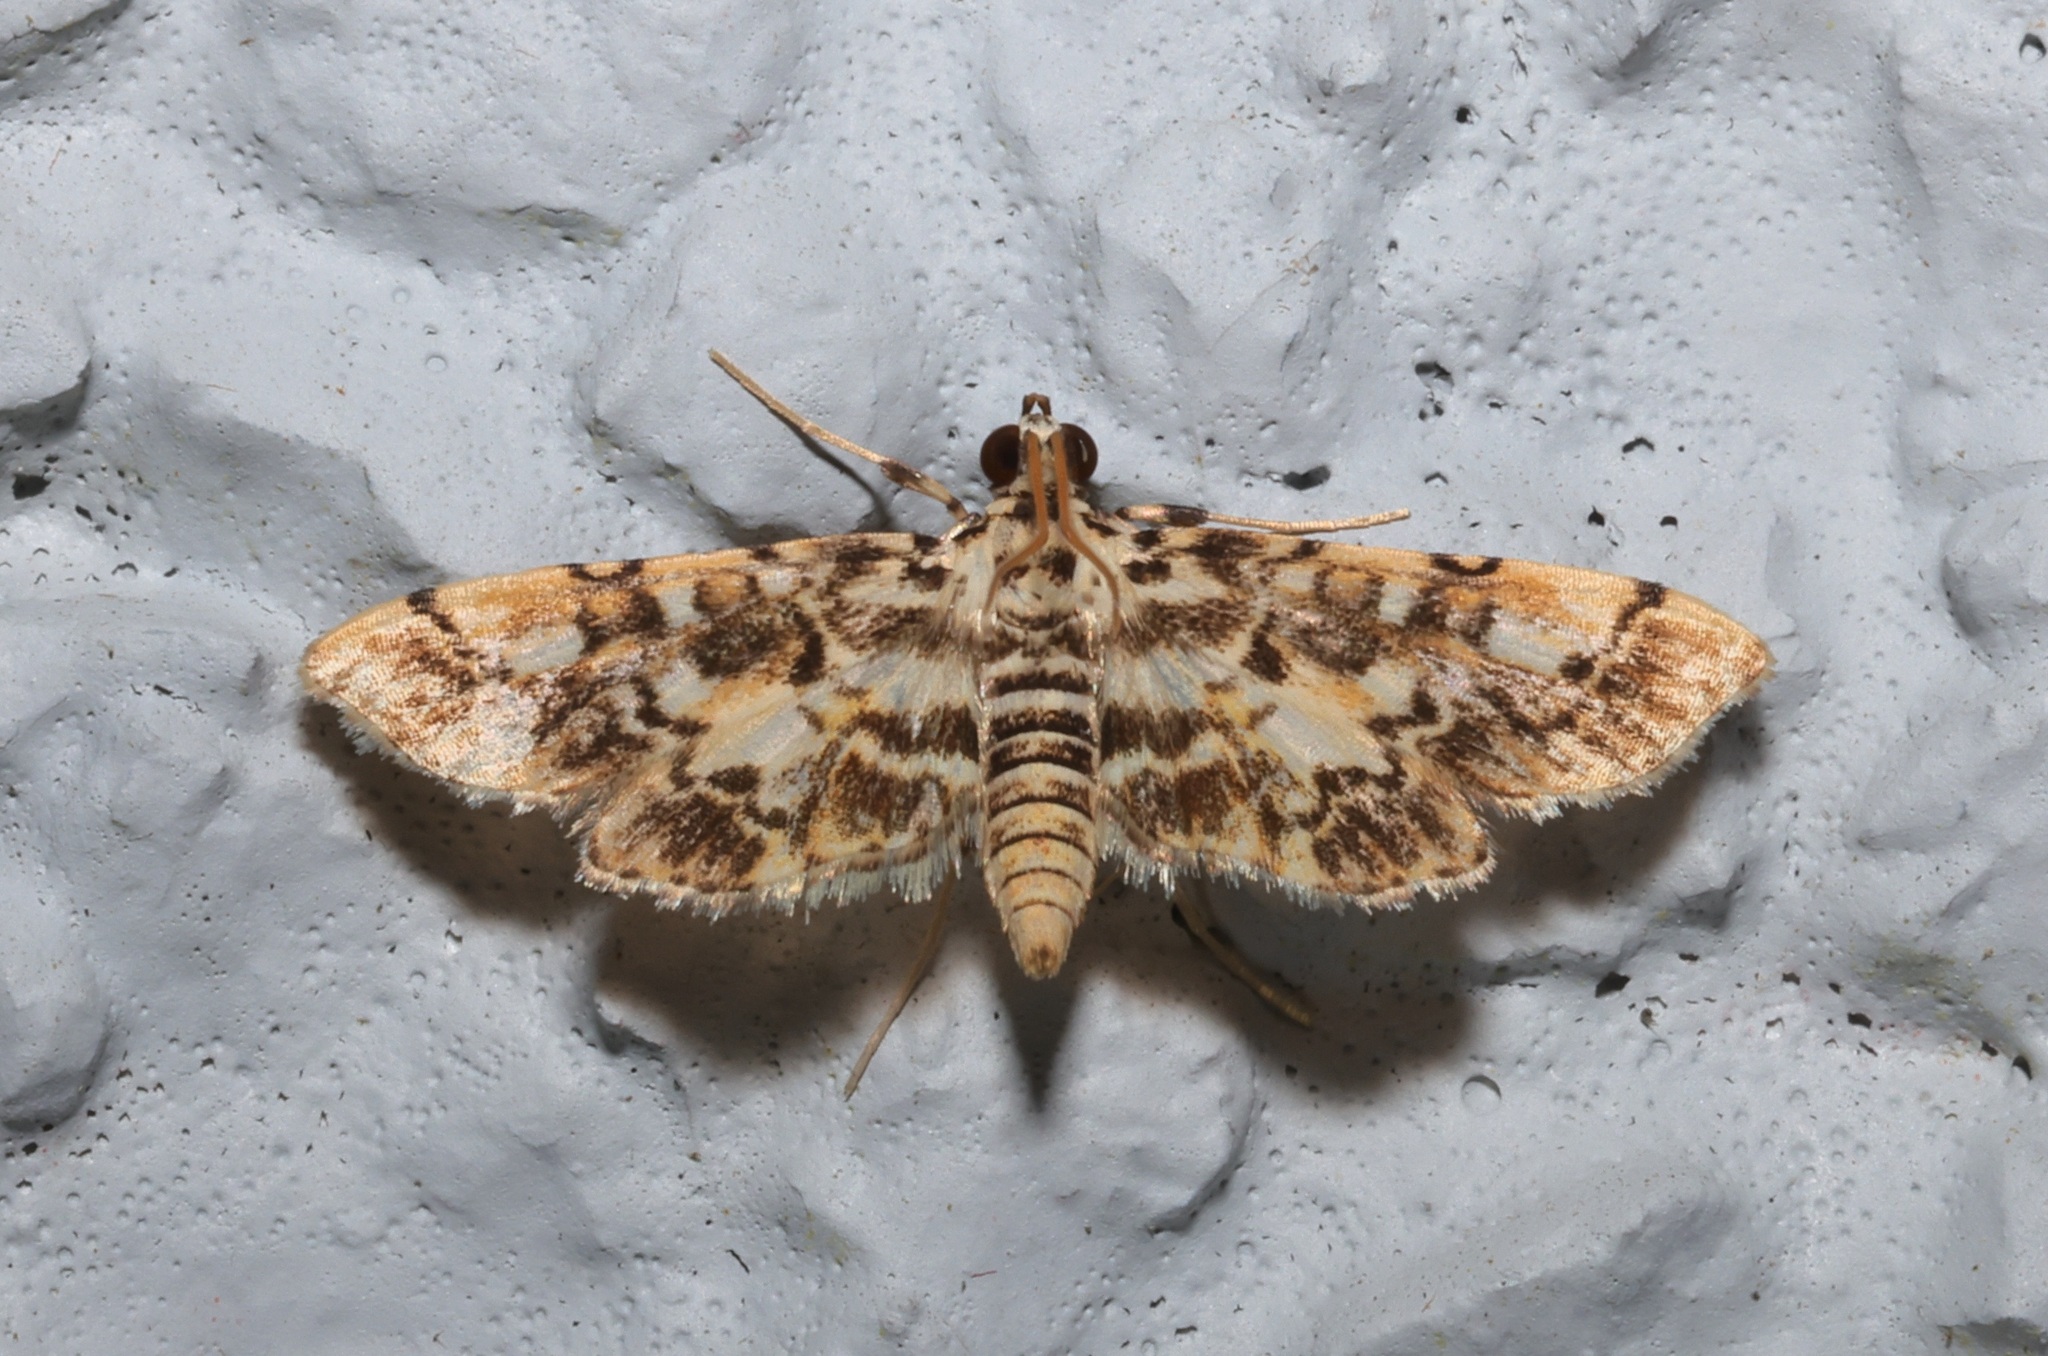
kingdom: Animalia
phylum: Arthropoda
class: Insecta
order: Lepidoptera
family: Crambidae
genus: Lamprosema
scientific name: Lamprosema commixta
